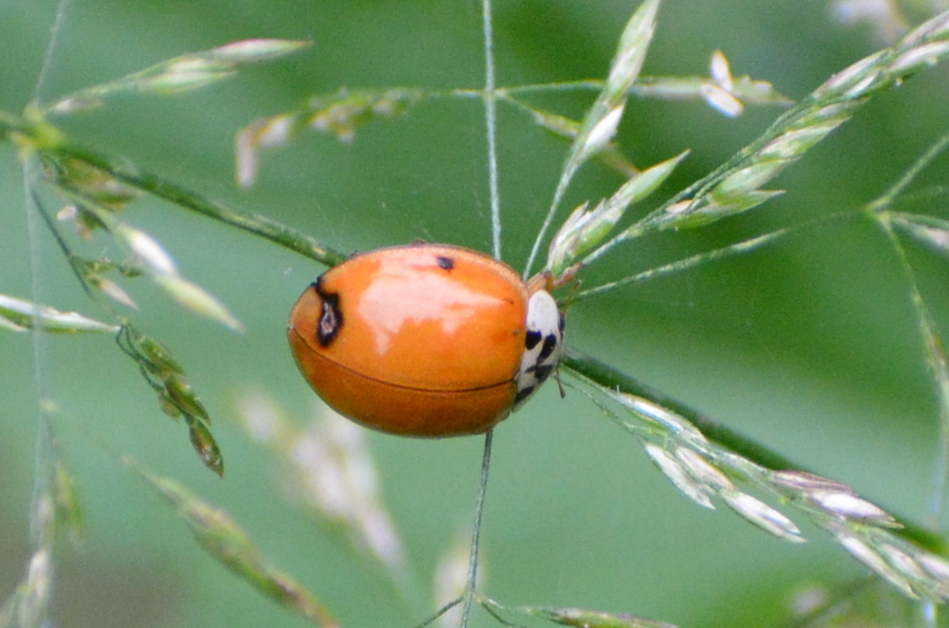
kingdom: Animalia
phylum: Arthropoda
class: Insecta
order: Coleoptera
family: Coccinellidae
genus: Harmonia
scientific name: Harmonia axyridis
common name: Harlequin ladybird
